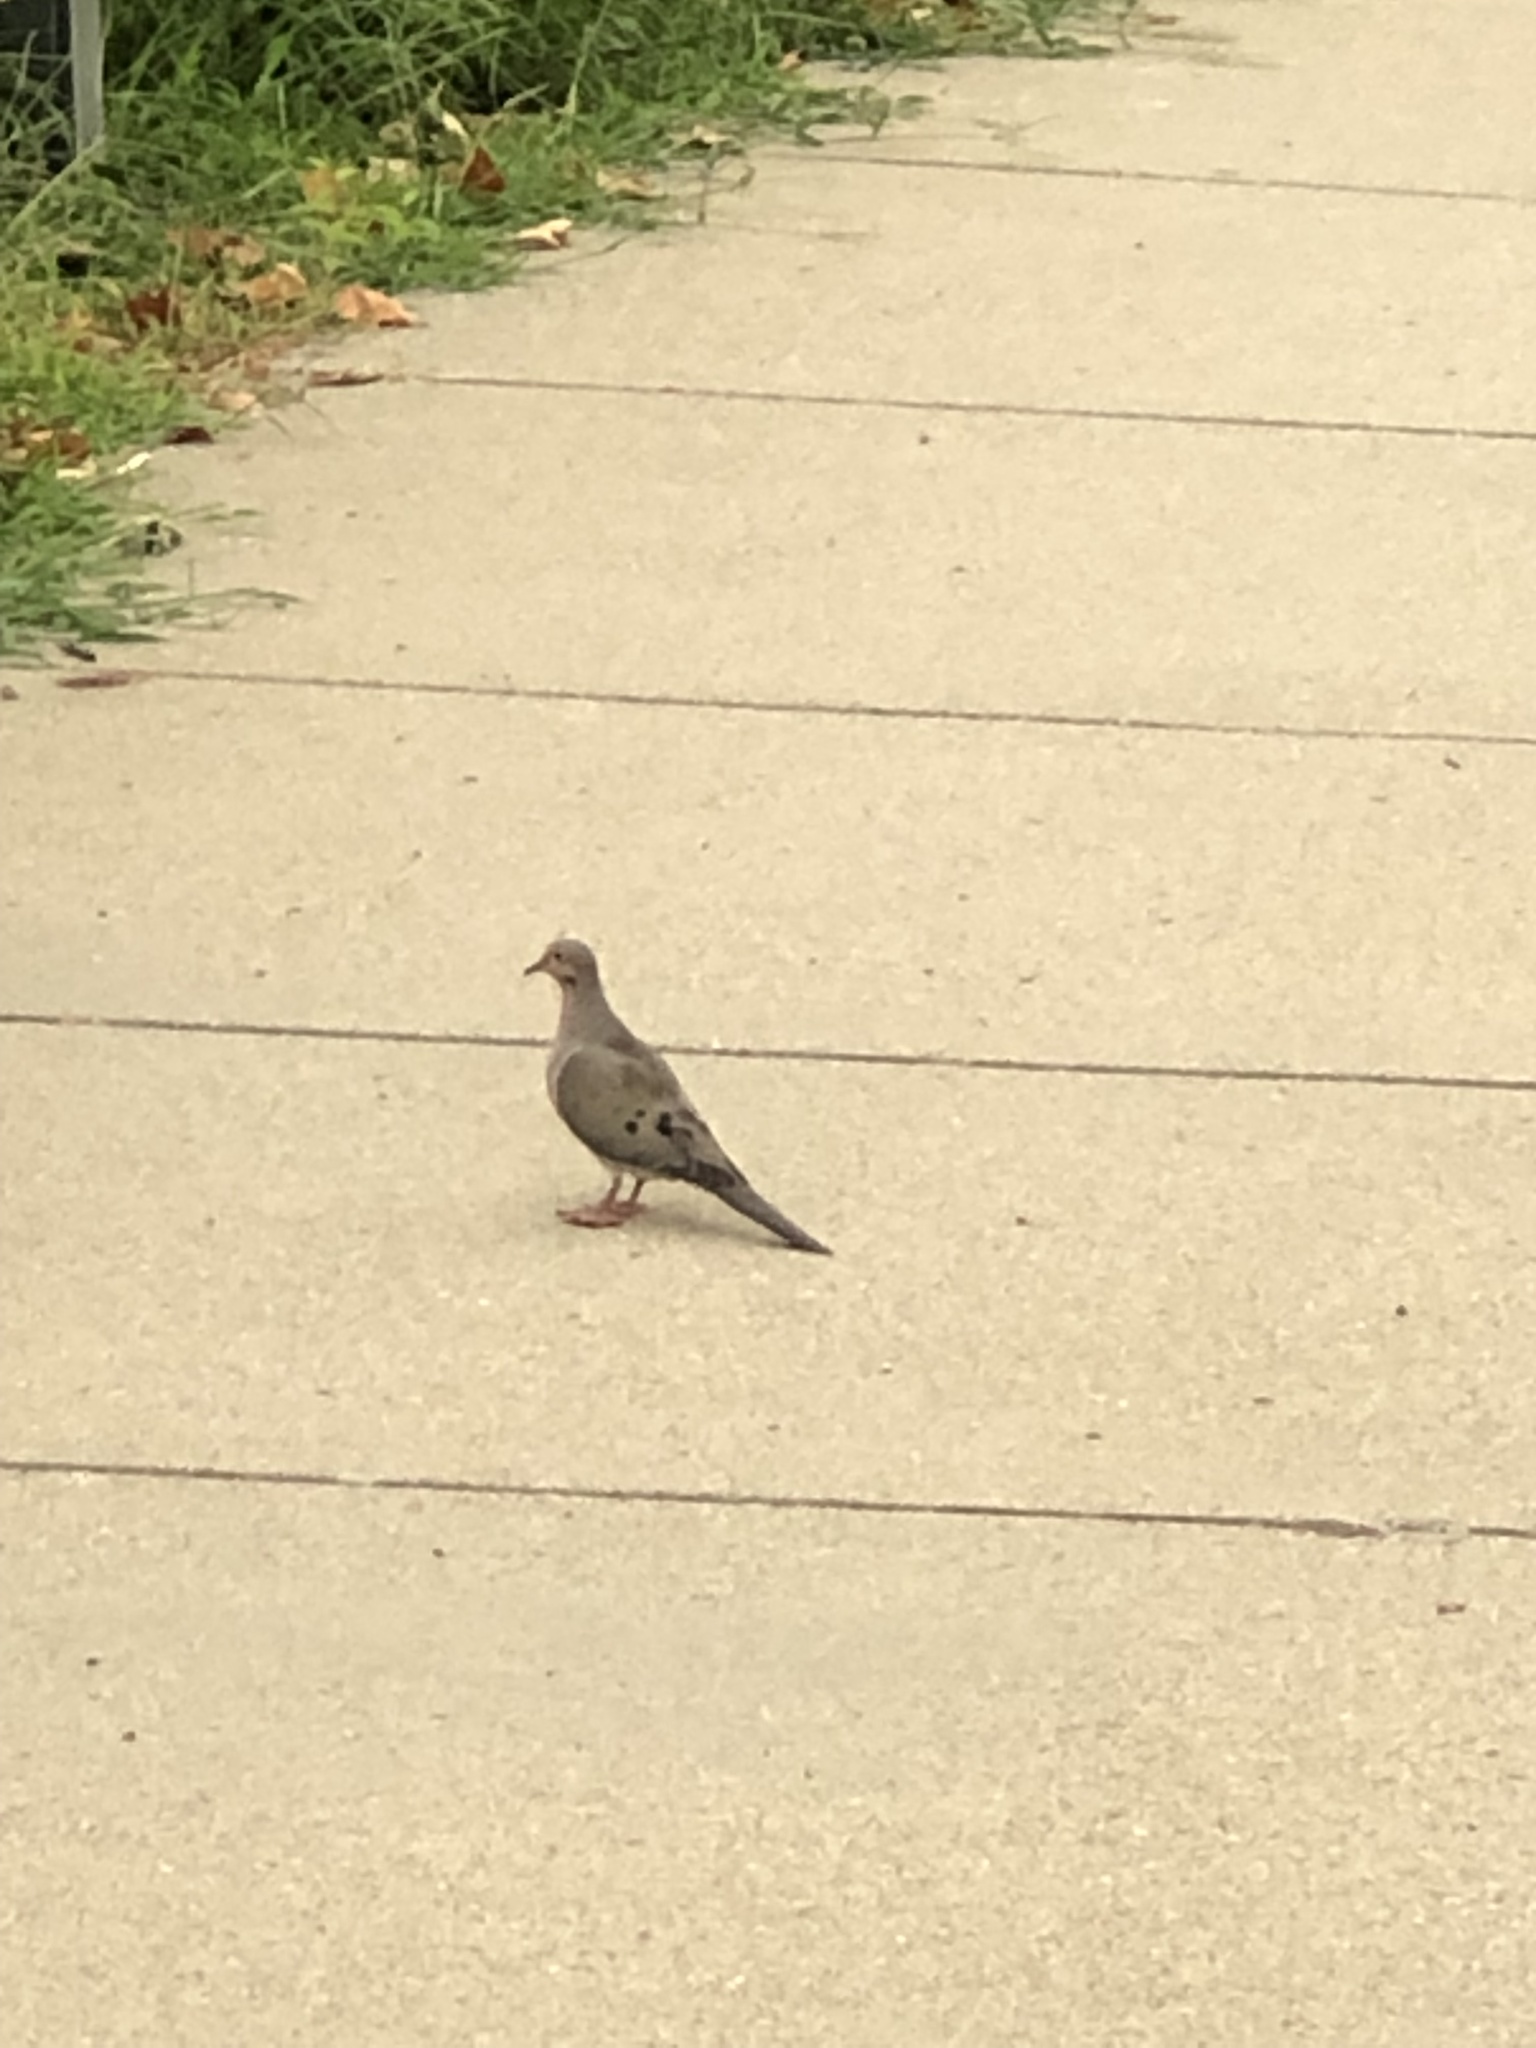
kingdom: Animalia
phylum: Chordata
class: Aves
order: Columbiformes
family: Columbidae
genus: Zenaida
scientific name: Zenaida macroura
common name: Mourning dove
